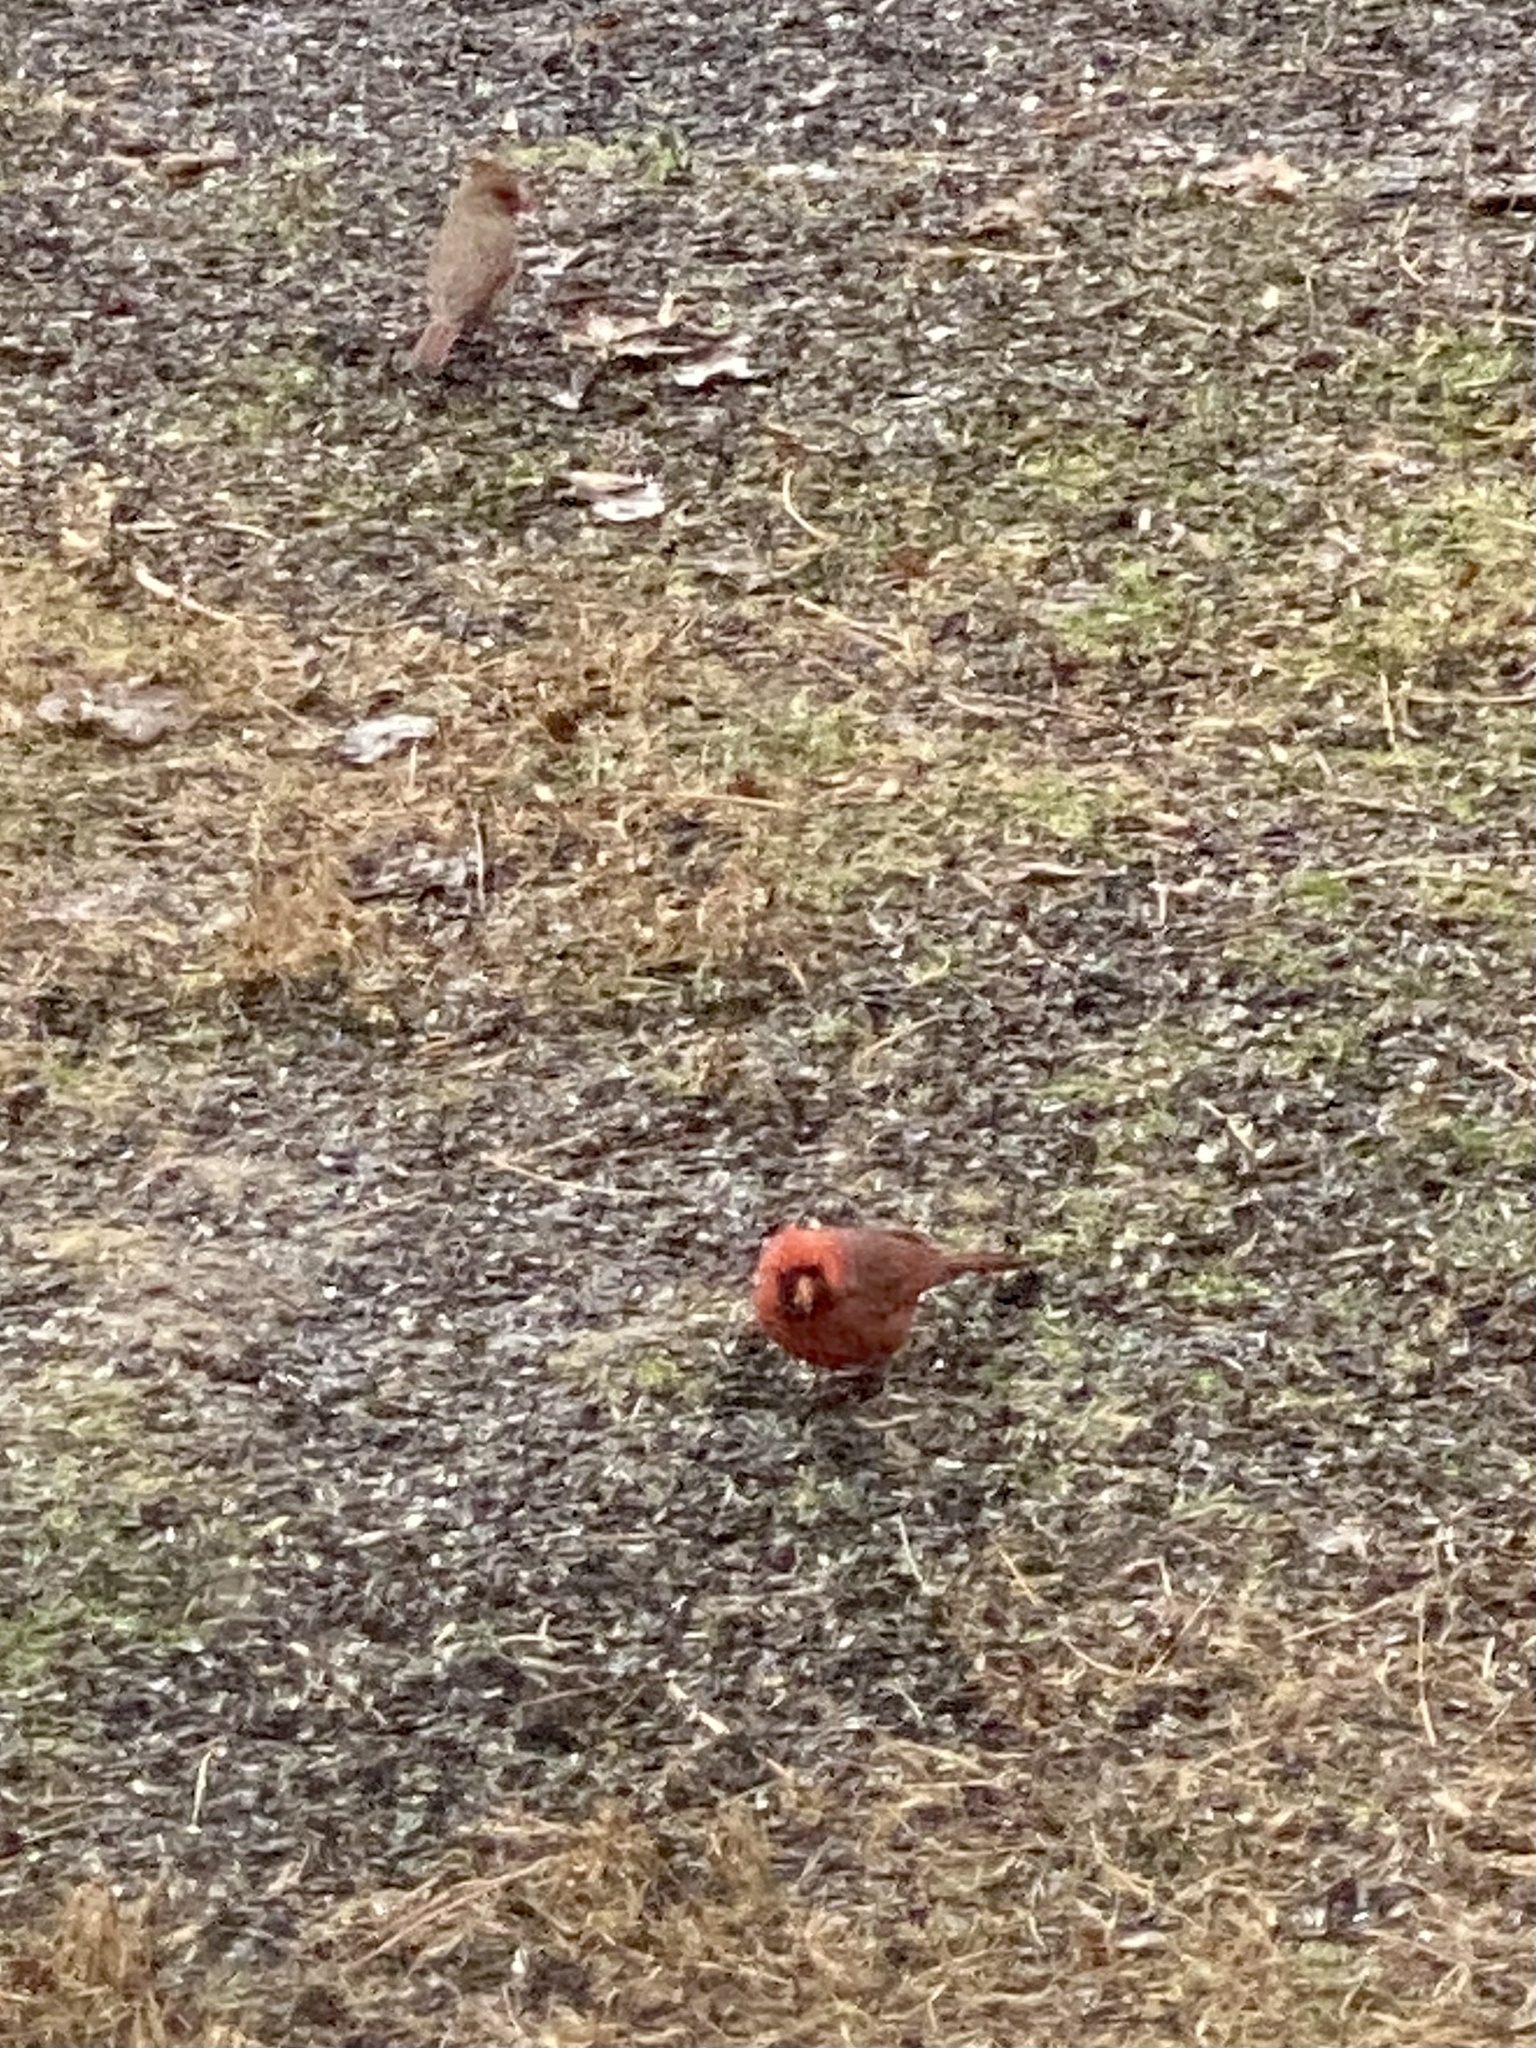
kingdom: Animalia
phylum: Chordata
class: Aves
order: Passeriformes
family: Cardinalidae
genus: Cardinalis
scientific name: Cardinalis cardinalis
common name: Northern cardinal
